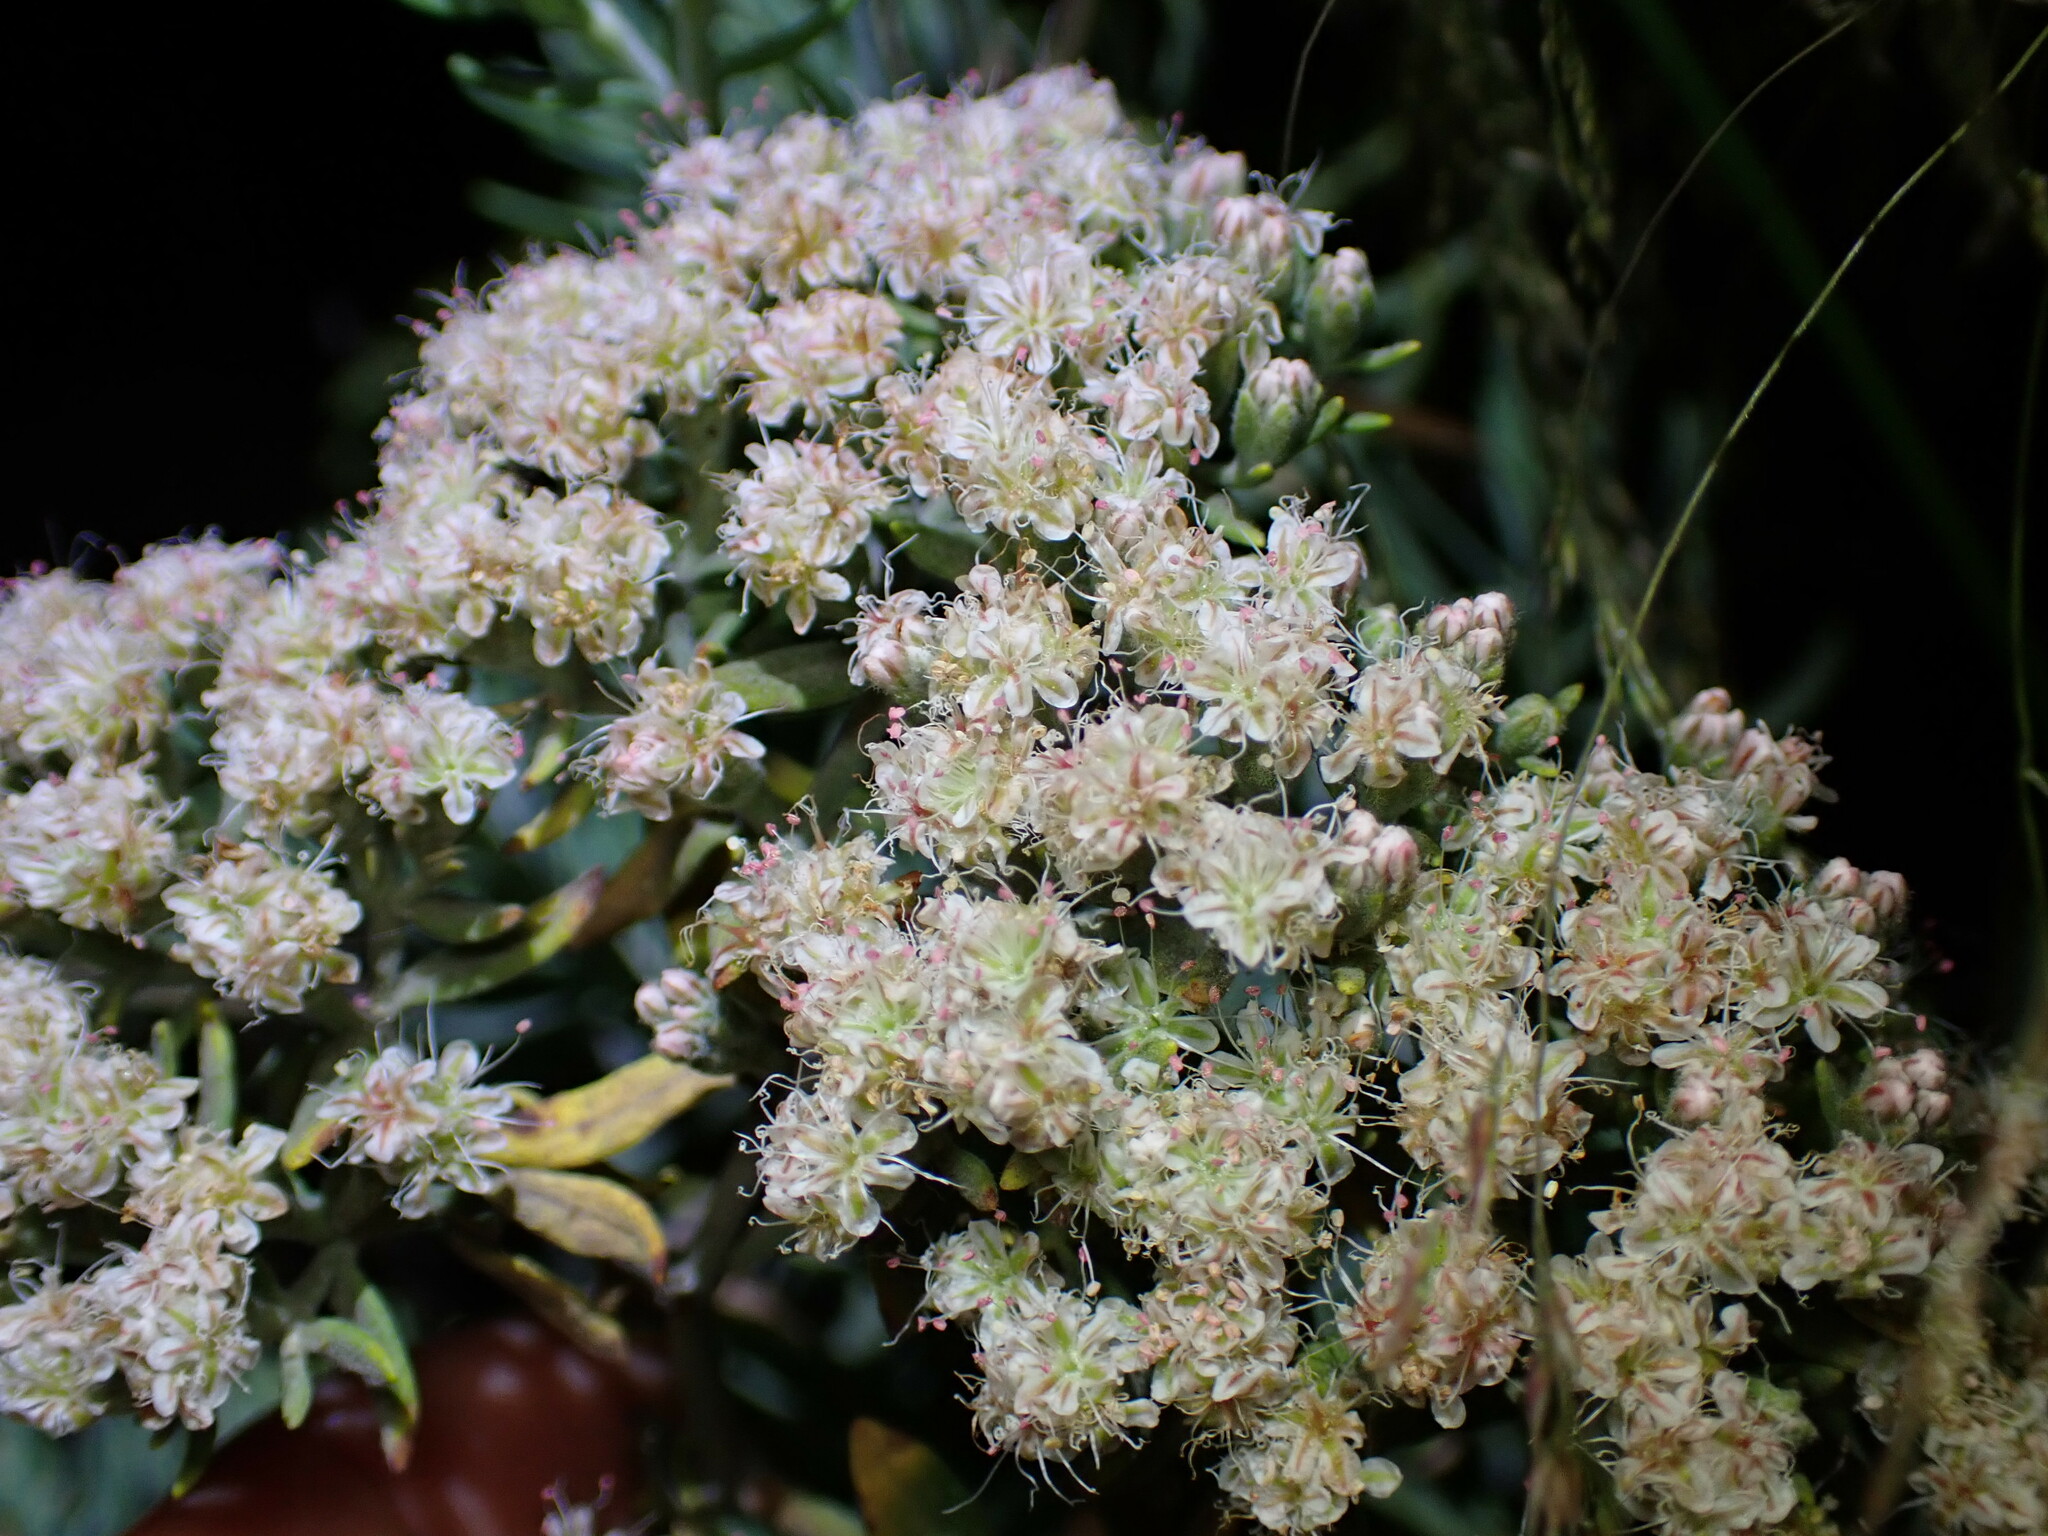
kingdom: Plantae
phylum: Tracheophyta
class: Magnoliopsida
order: Caryophyllales
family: Polygonaceae
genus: Eriogonum
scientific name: Eriogonum arborescens
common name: Island buckwheat
